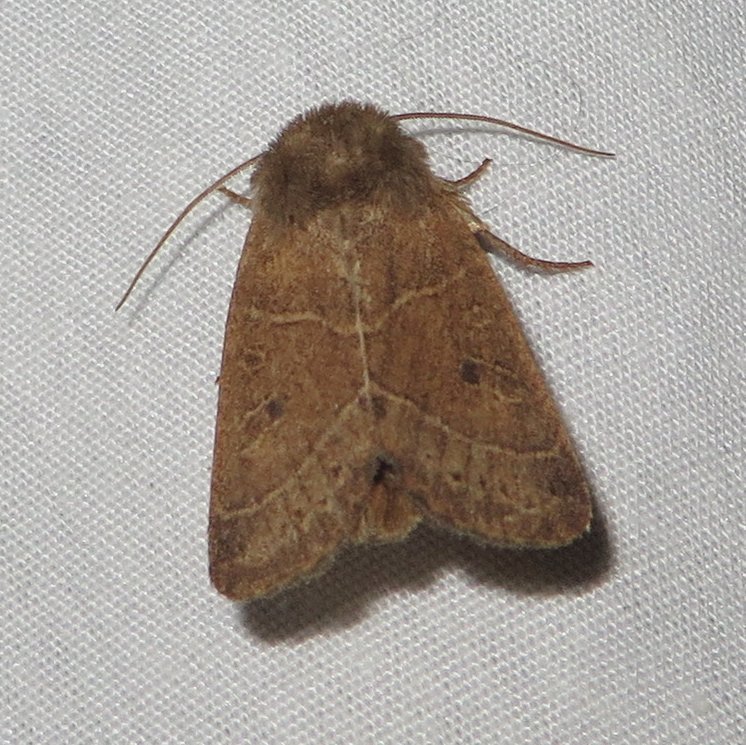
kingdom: Animalia
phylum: Arthropoda
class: Insecta
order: Lepidoptera
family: Noctuidae
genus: Ulolonche
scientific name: Ulolonche culea
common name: Sheathed quaker
